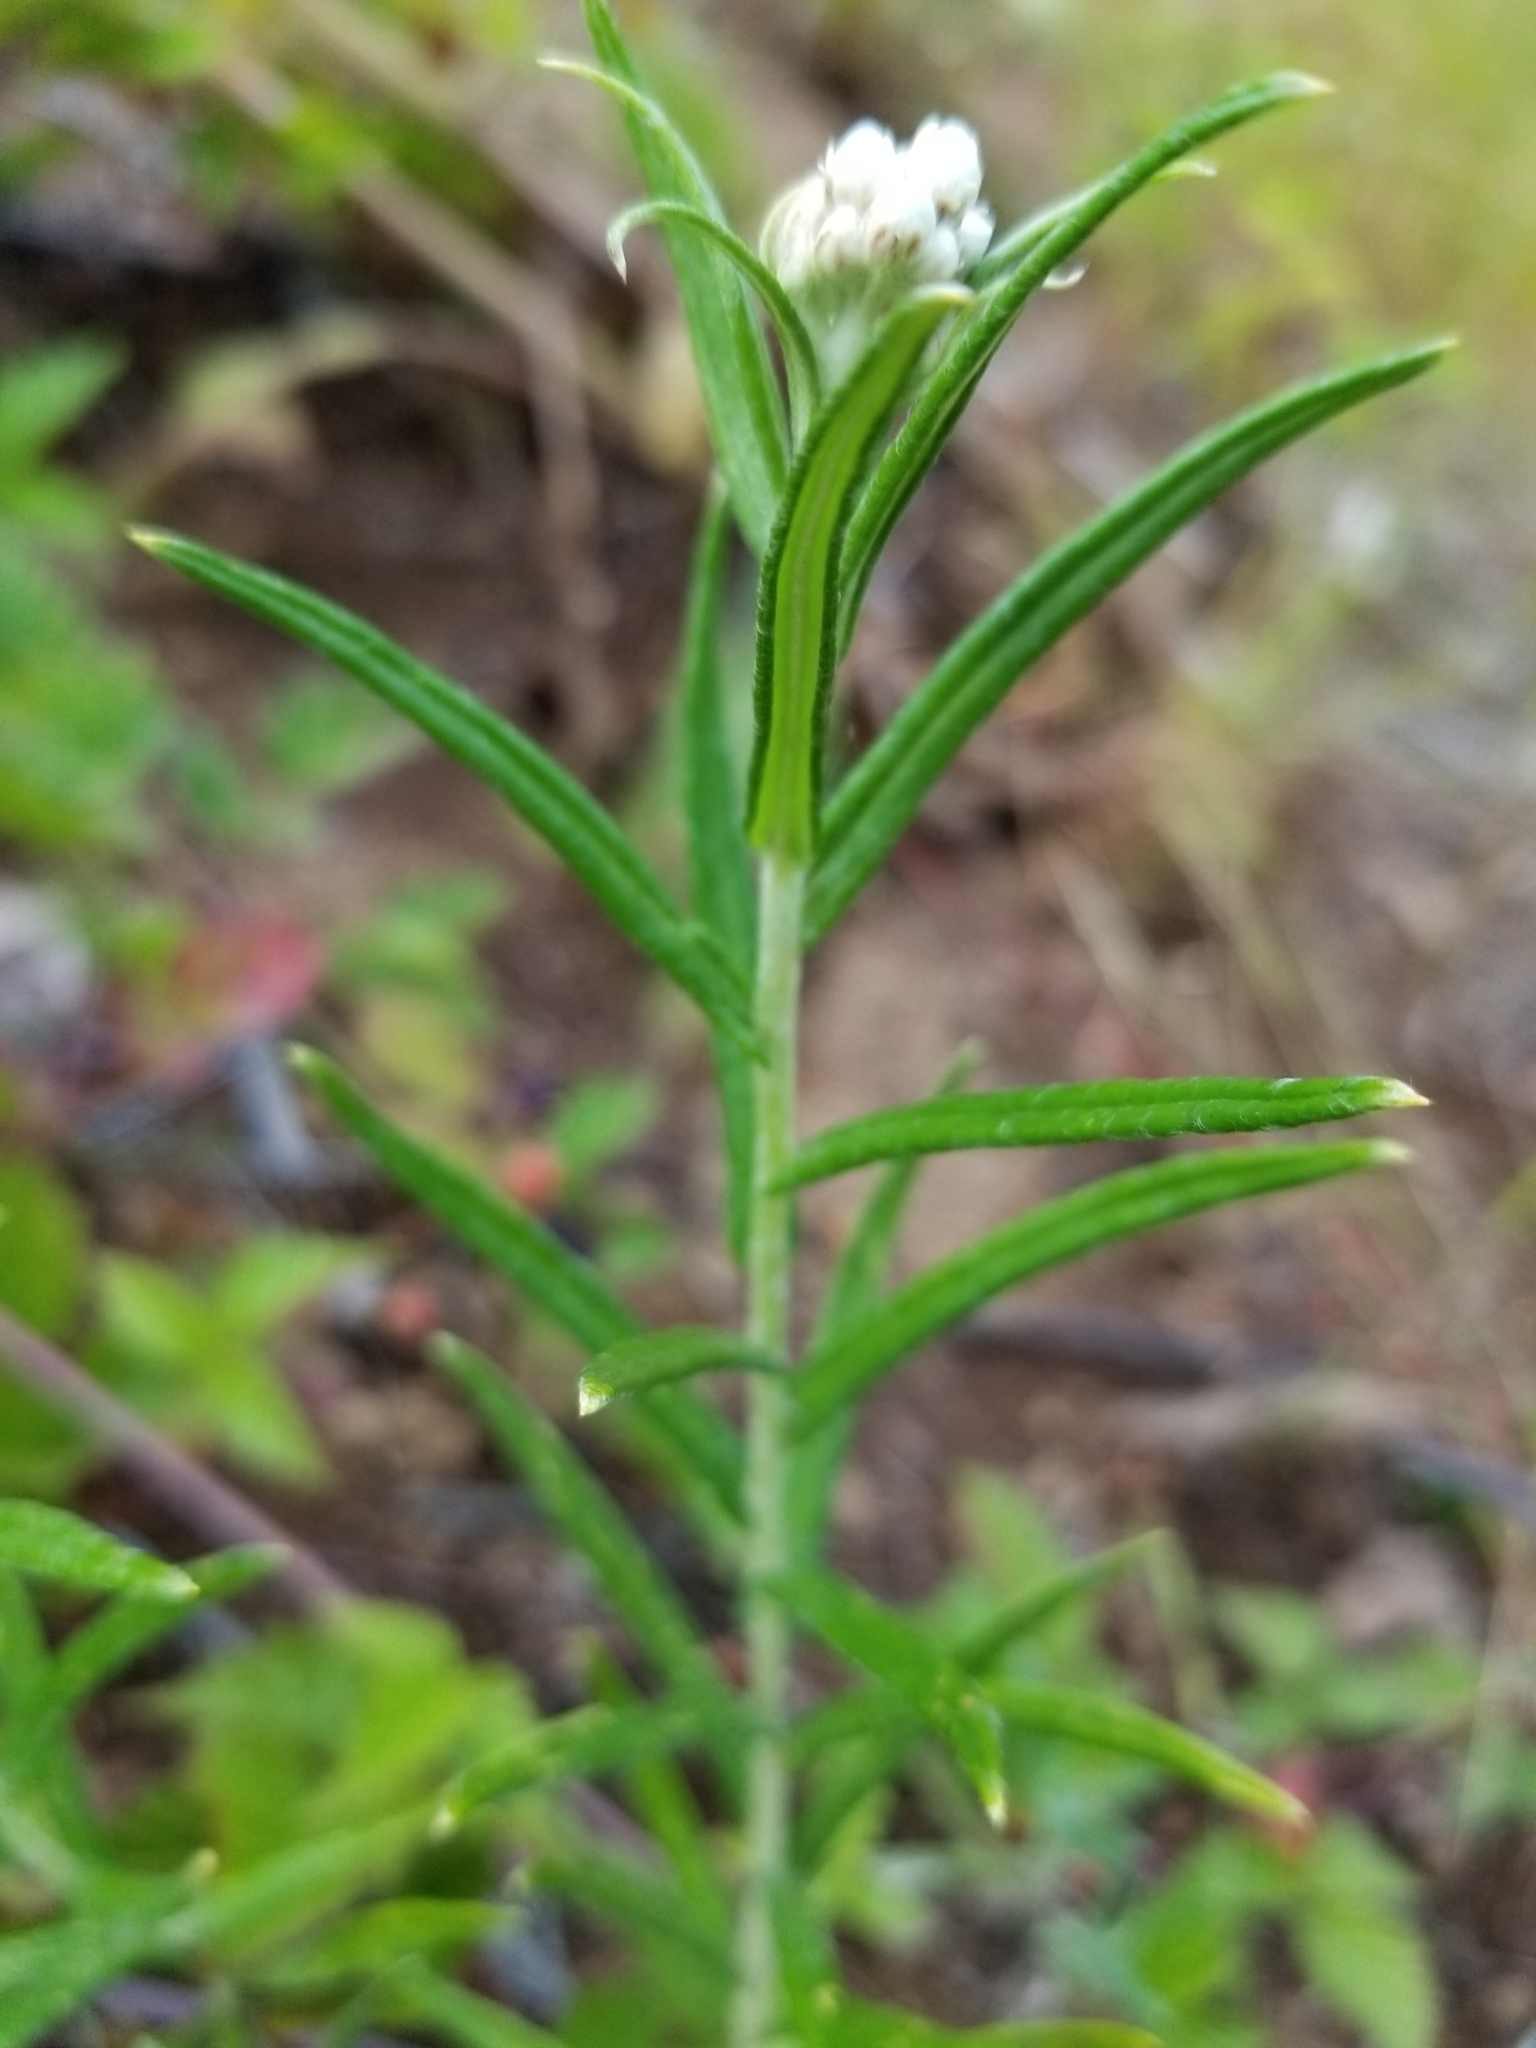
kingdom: Plantae
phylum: Tracheophyta
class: Magnoliopsida
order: Asterales
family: Asteraceae
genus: Anaphalis
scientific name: Anaphalis margaritacea
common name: Pearly everlasting
